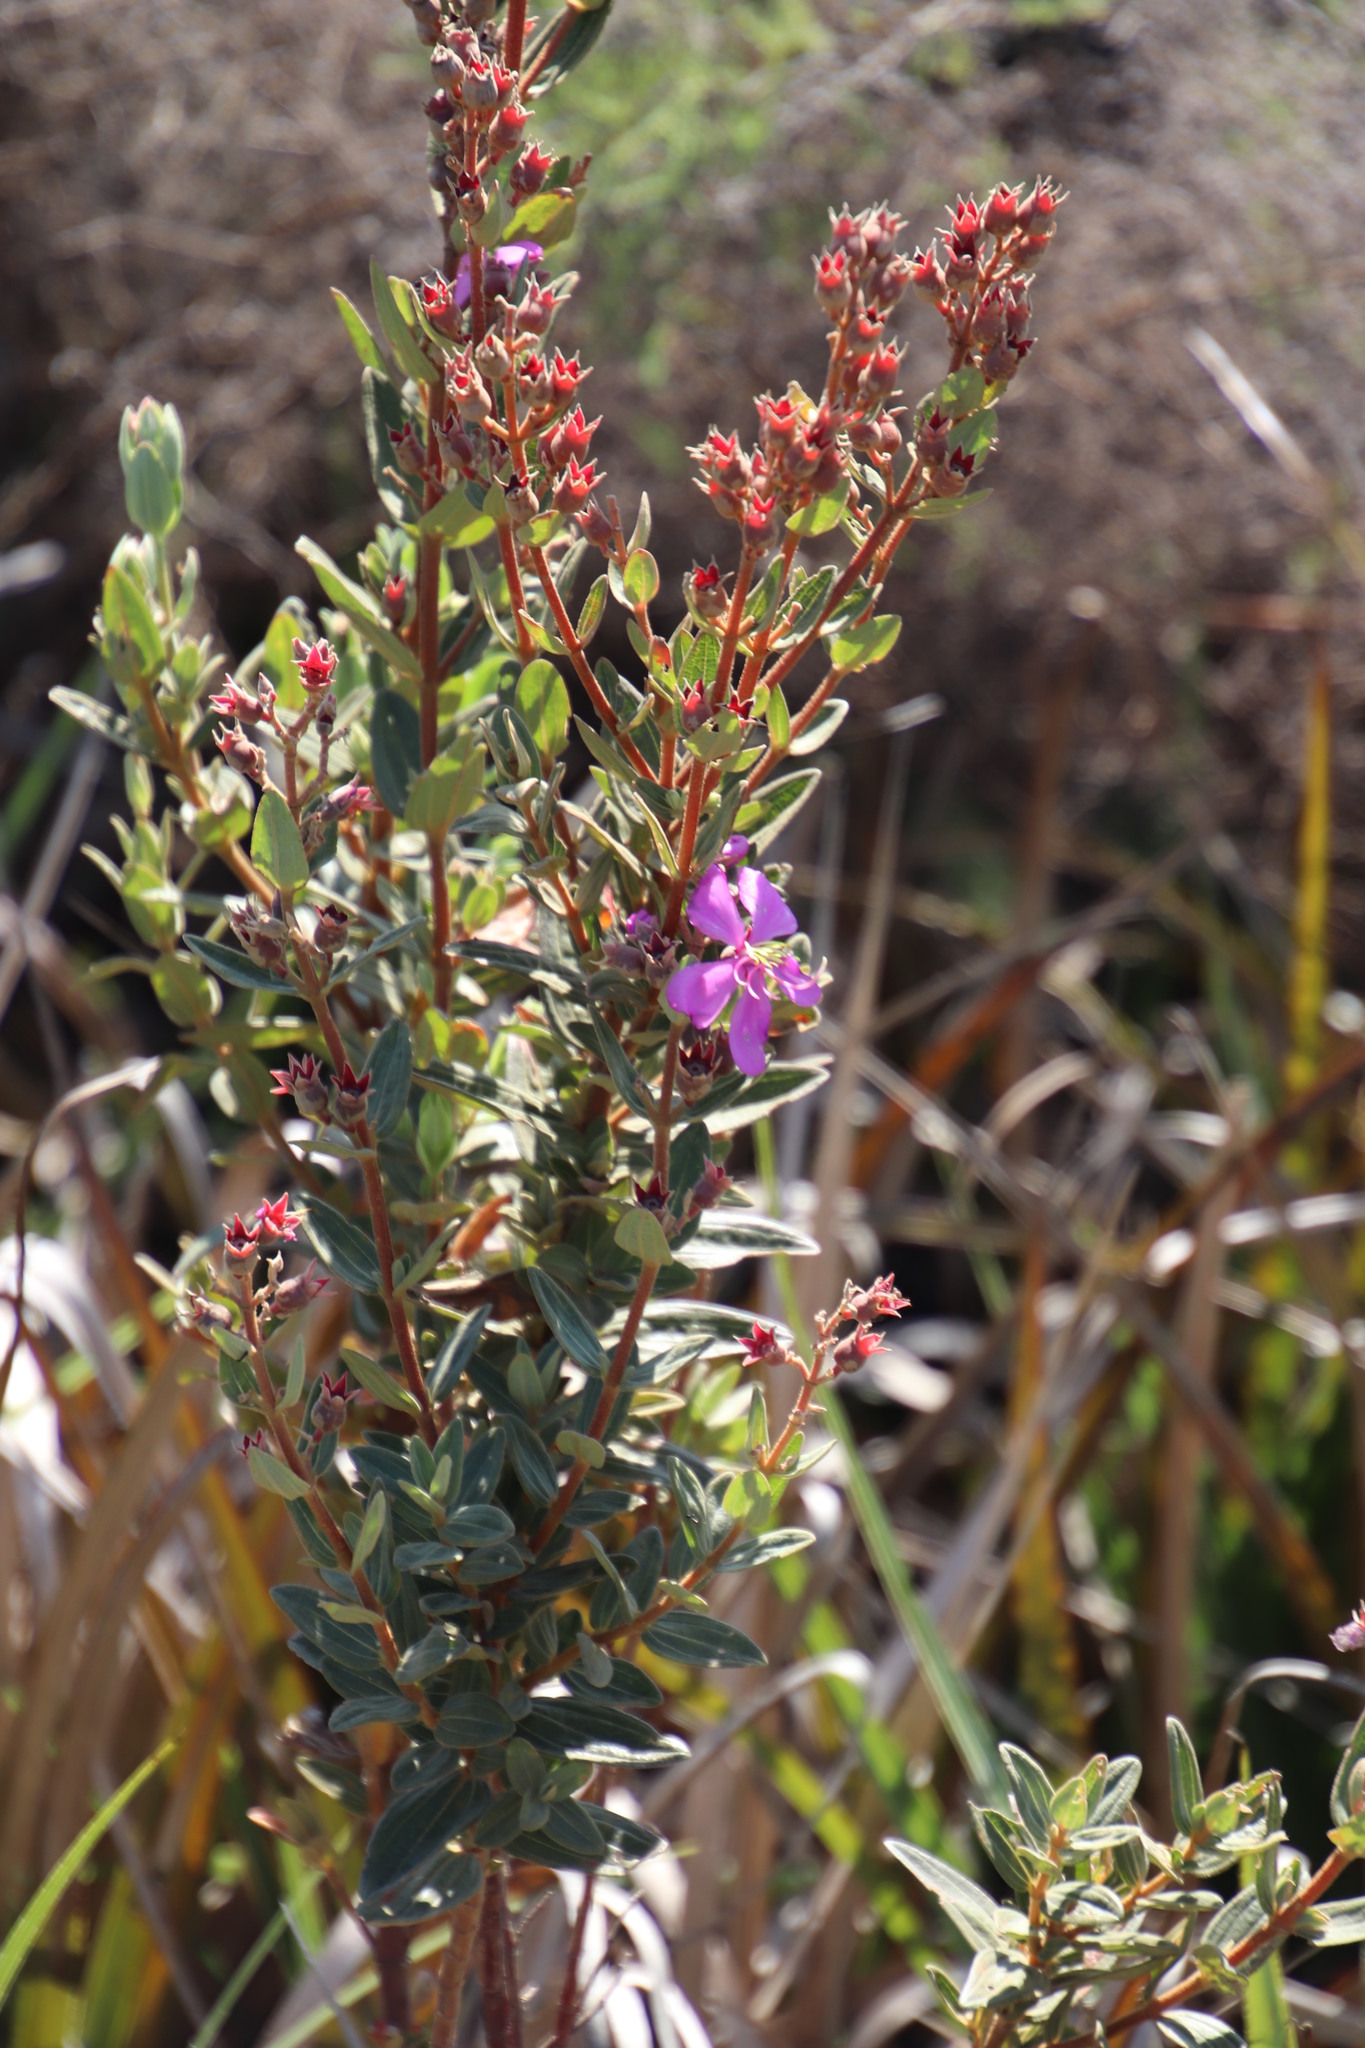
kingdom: Plantae
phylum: Tracheophyta
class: Magnoliopsida
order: Myrtales
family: Melastomataceae
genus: Argyrella
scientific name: Argyrella canescens
